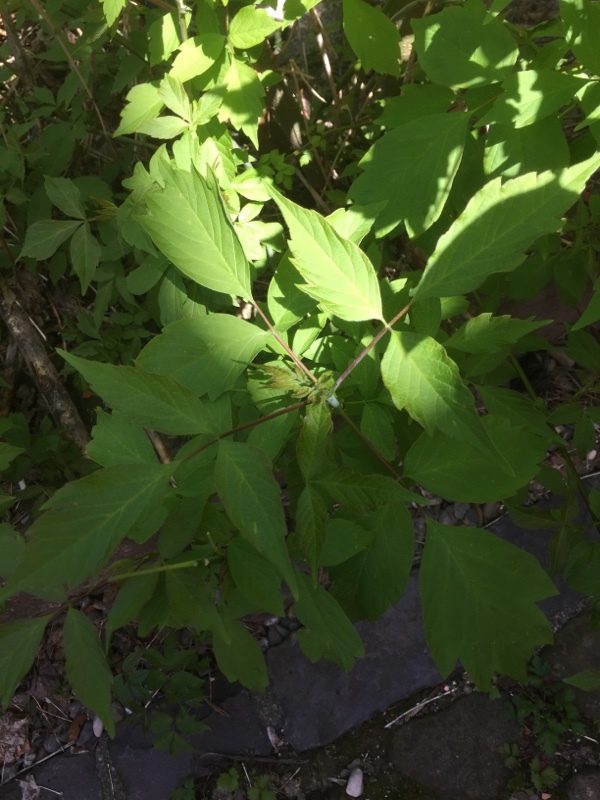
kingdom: Plantae
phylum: Tracheophyta
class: Magnoliopsida
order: Sapindales
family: Sapindaceae
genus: Acer
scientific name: Acer negundo
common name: Ashleaf maple
